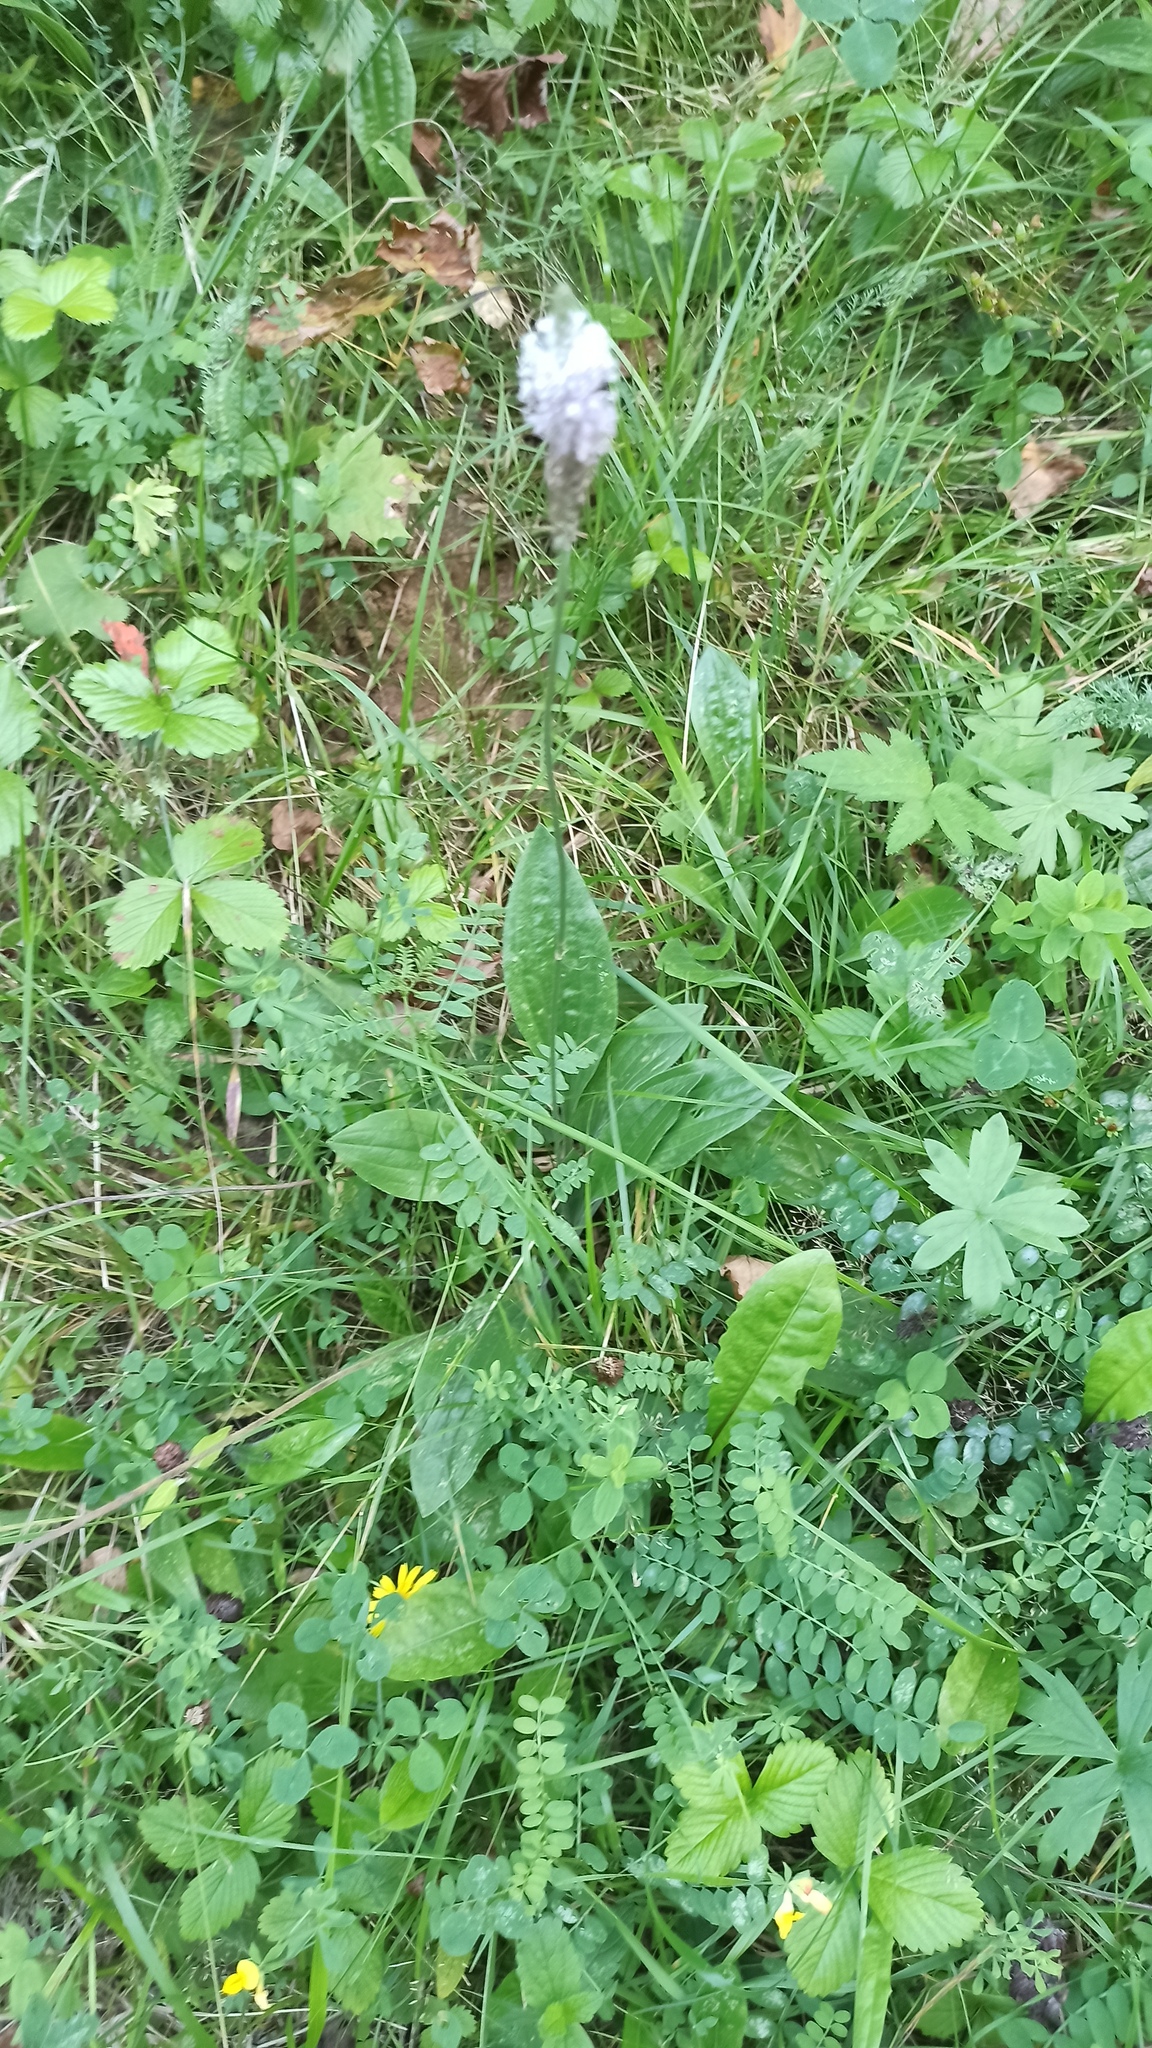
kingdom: Plantae
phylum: Tracheophyta
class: Magnoliopsida
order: Lamiales
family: Plantaginaceae
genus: Plantago
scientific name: Plantago media
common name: Hoary plantain
